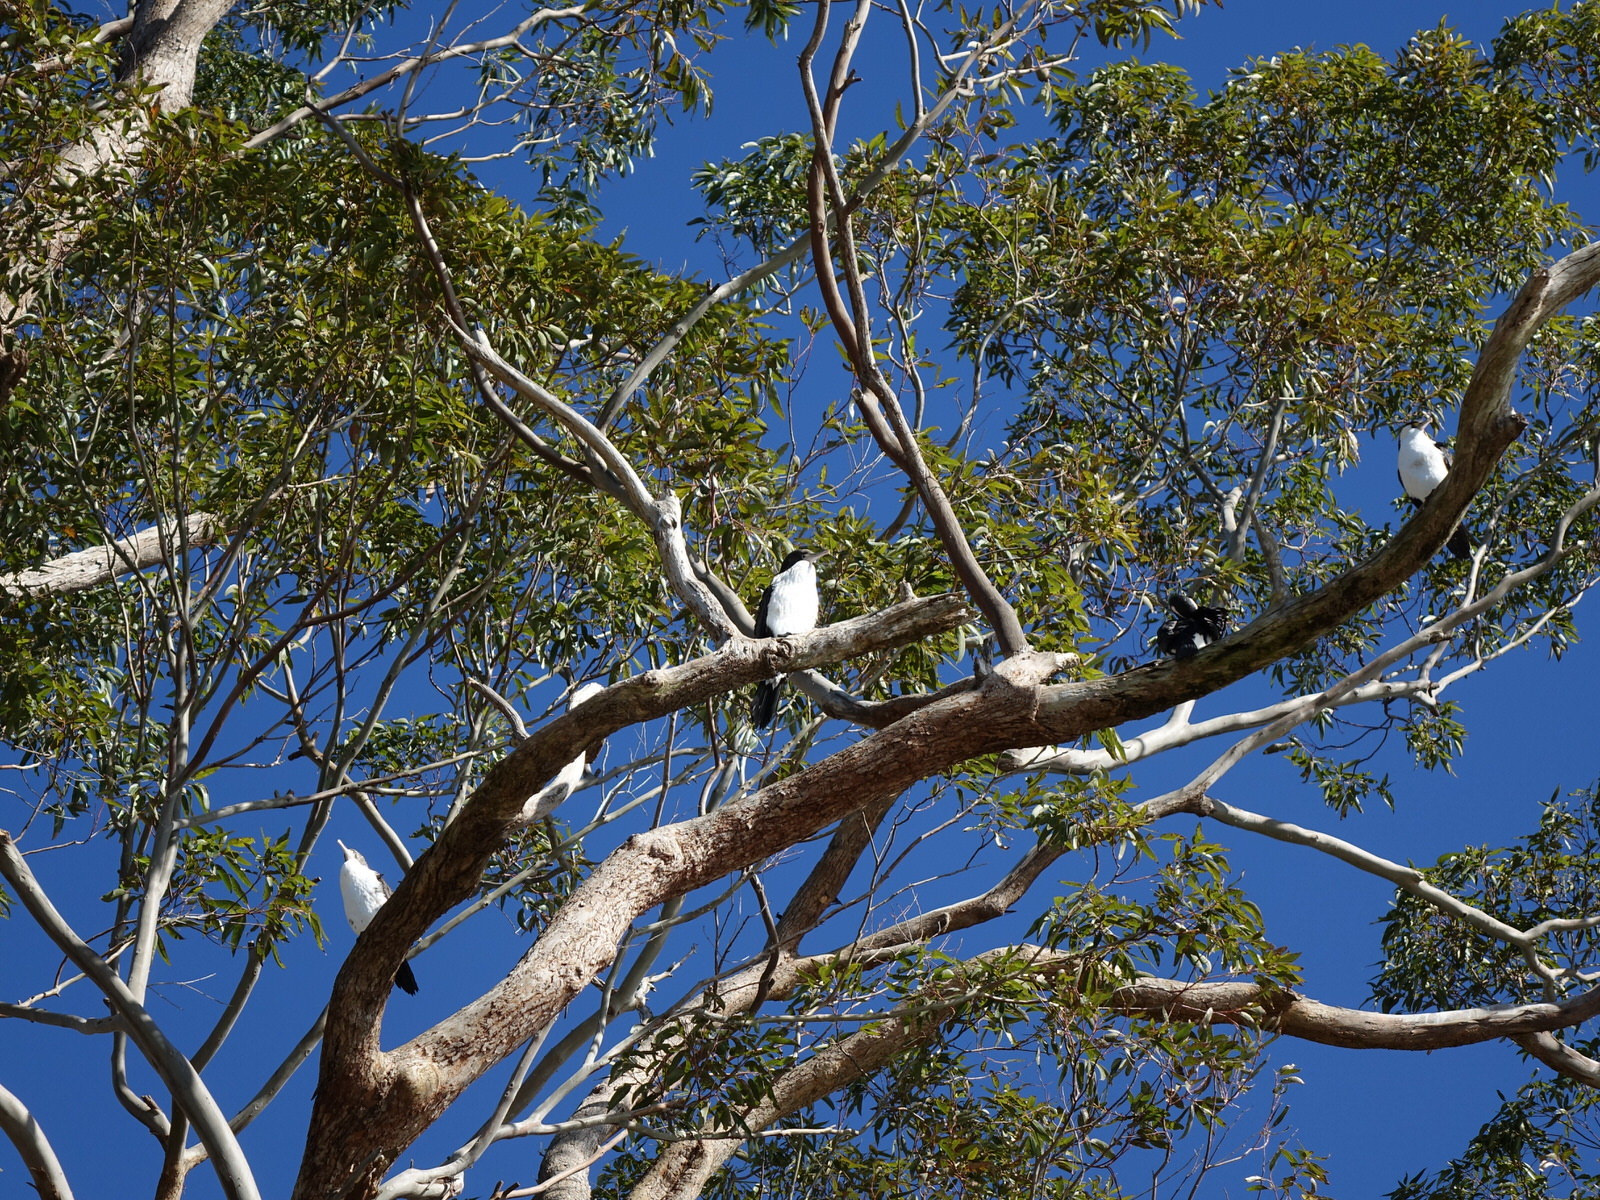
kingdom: Animalia
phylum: Chordata
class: Aves
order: Suliformes
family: Phalacrocoracidae
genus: Phalacrocorax
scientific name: Phalacrocorax varius
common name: Pied cormorant
